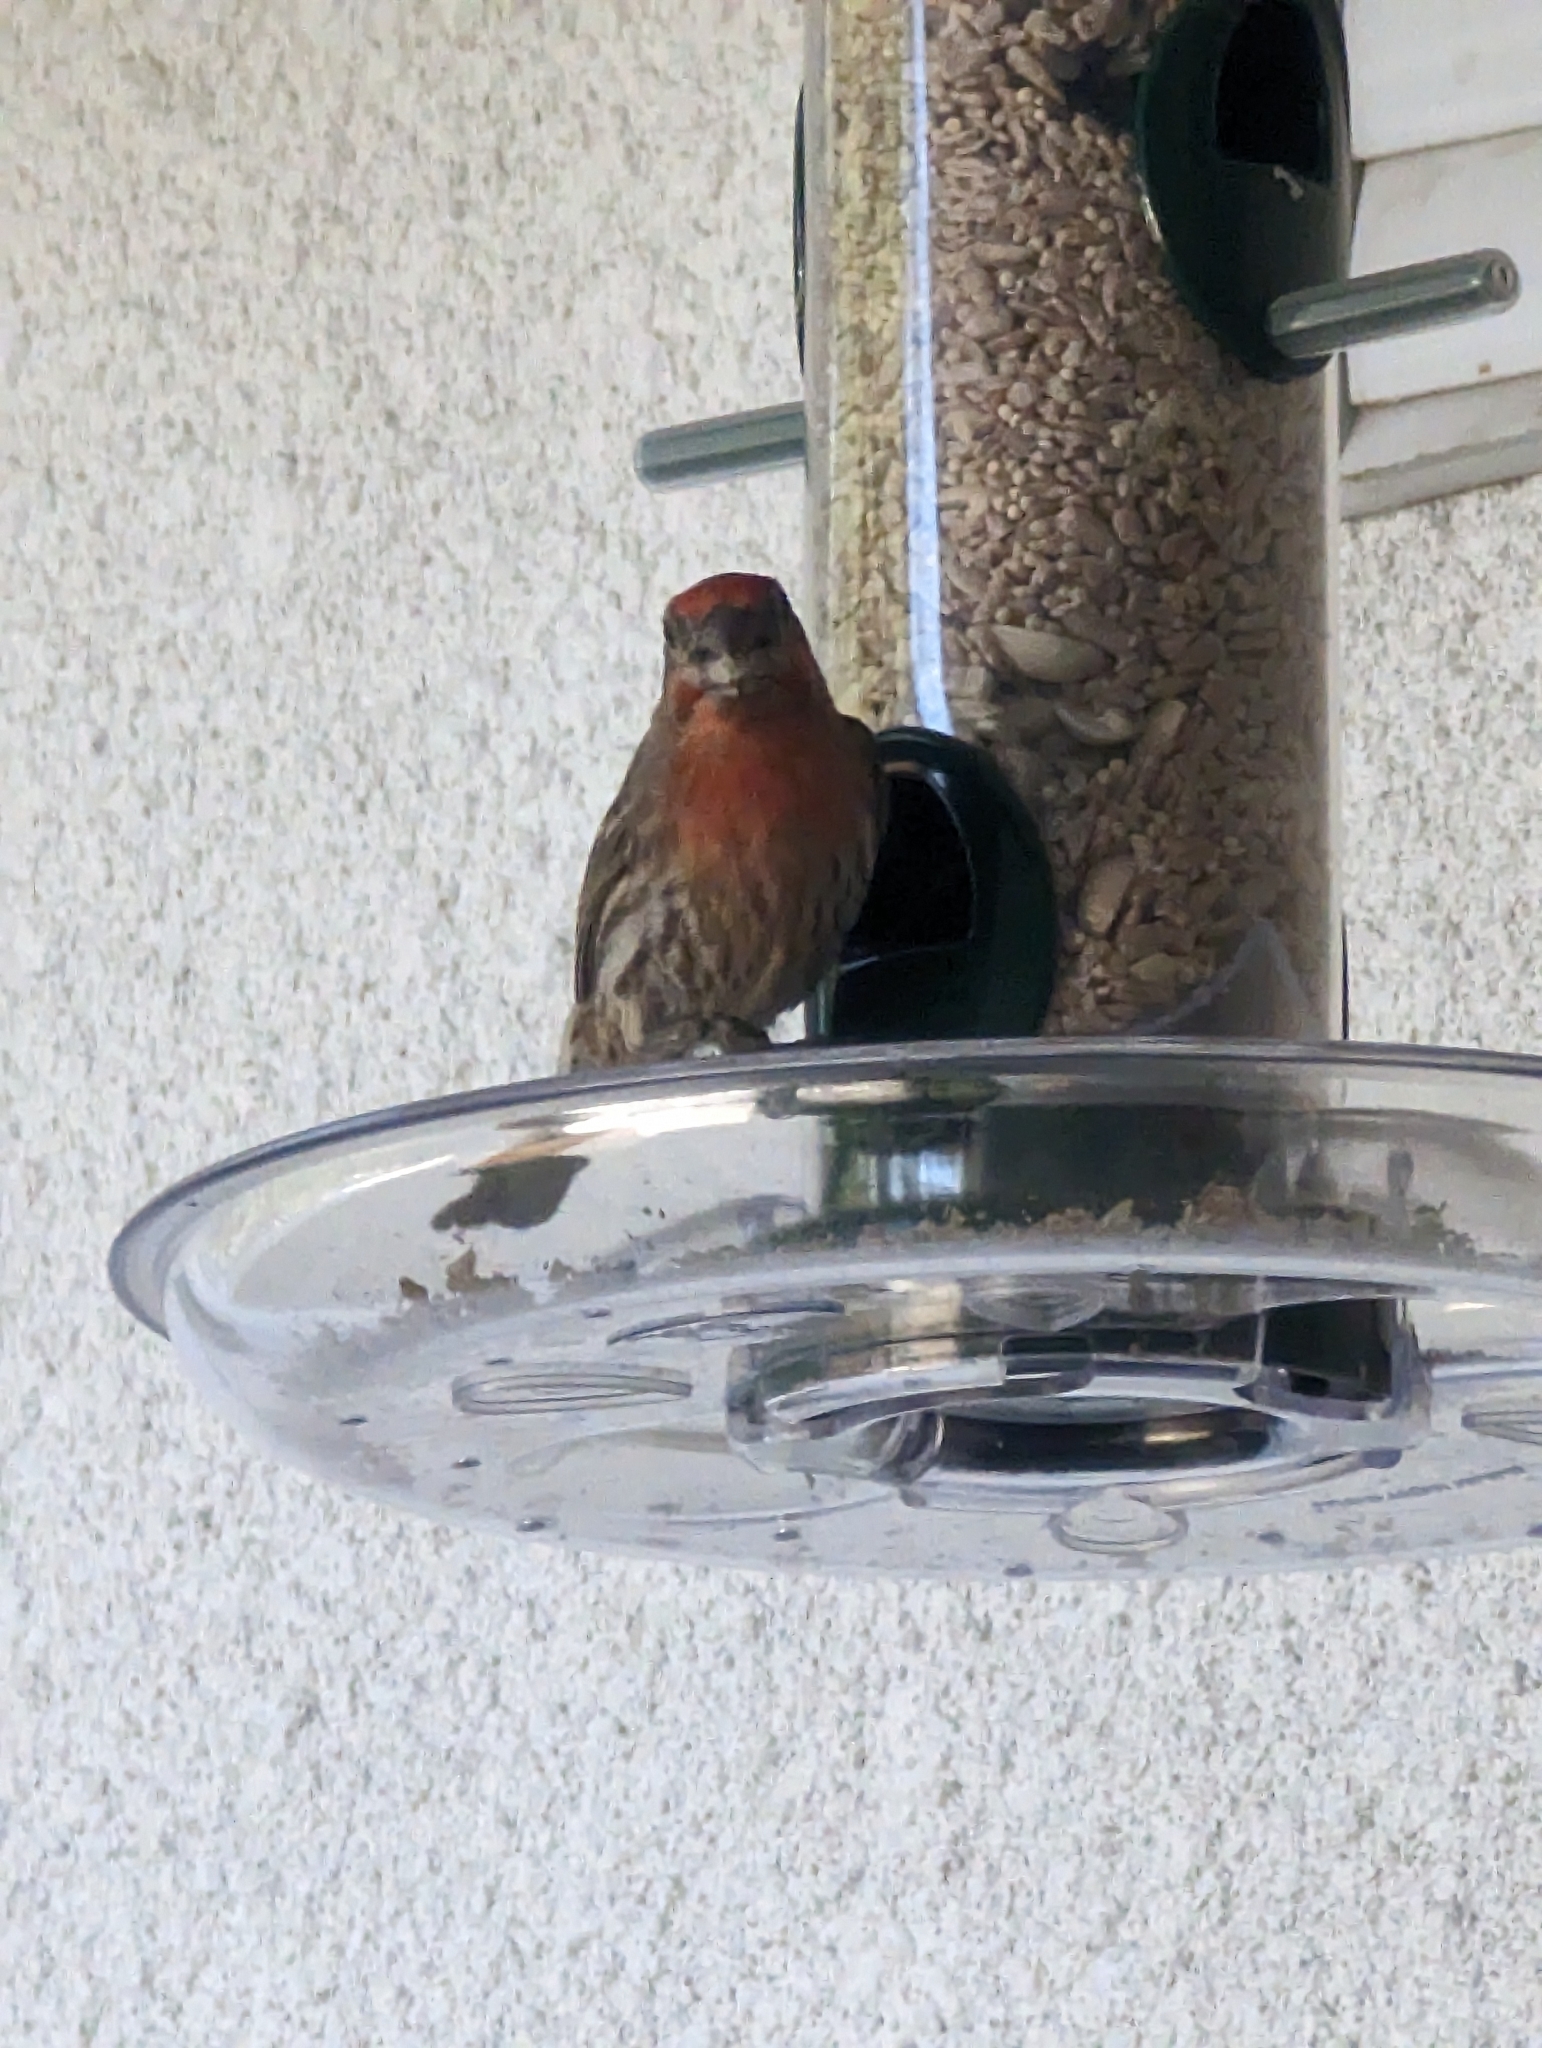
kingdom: Animalia
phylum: Chordata
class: Aves
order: Passeriformes
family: Fringillidae
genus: Haemorhous
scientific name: Haemorhous mexicanus
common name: House finch
